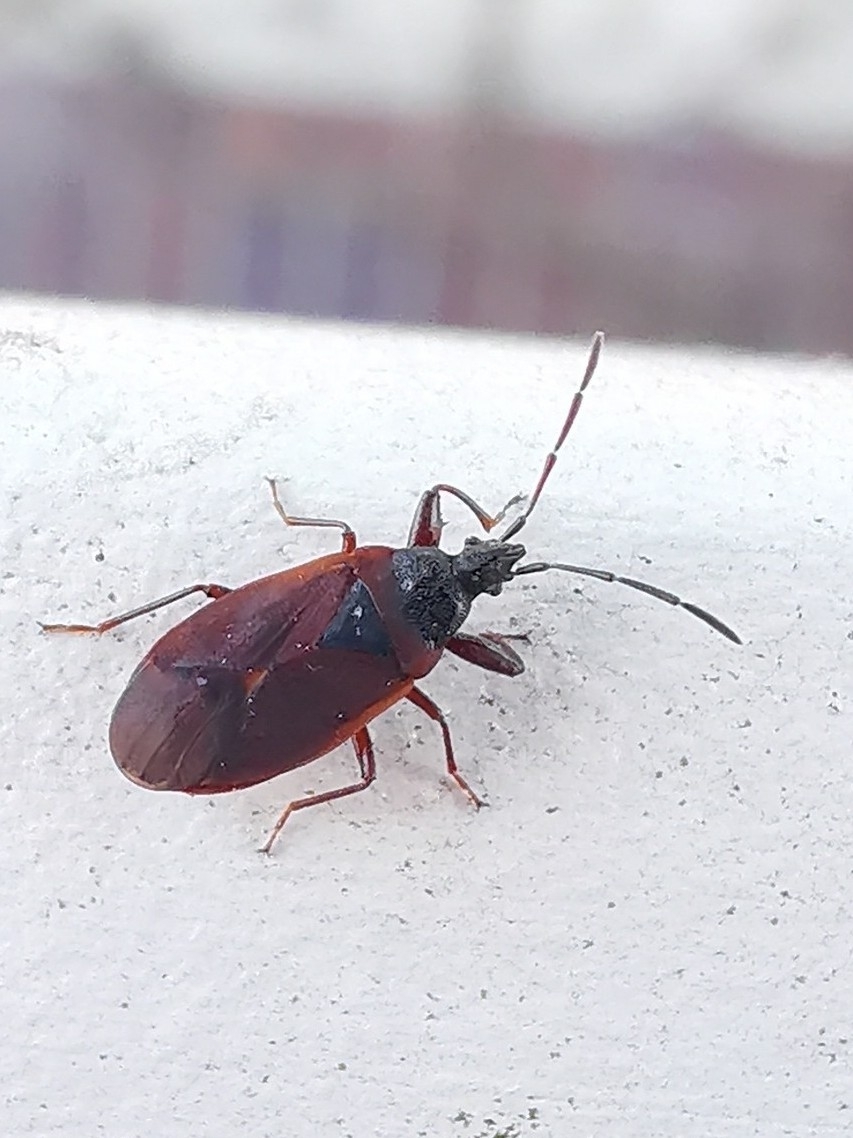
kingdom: Animalia
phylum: Arthropoda
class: Insecta
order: Hemiptera
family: Rhyparochromidae
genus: Gastrodes
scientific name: Gastrodes grossipes
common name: Pine cone bug
